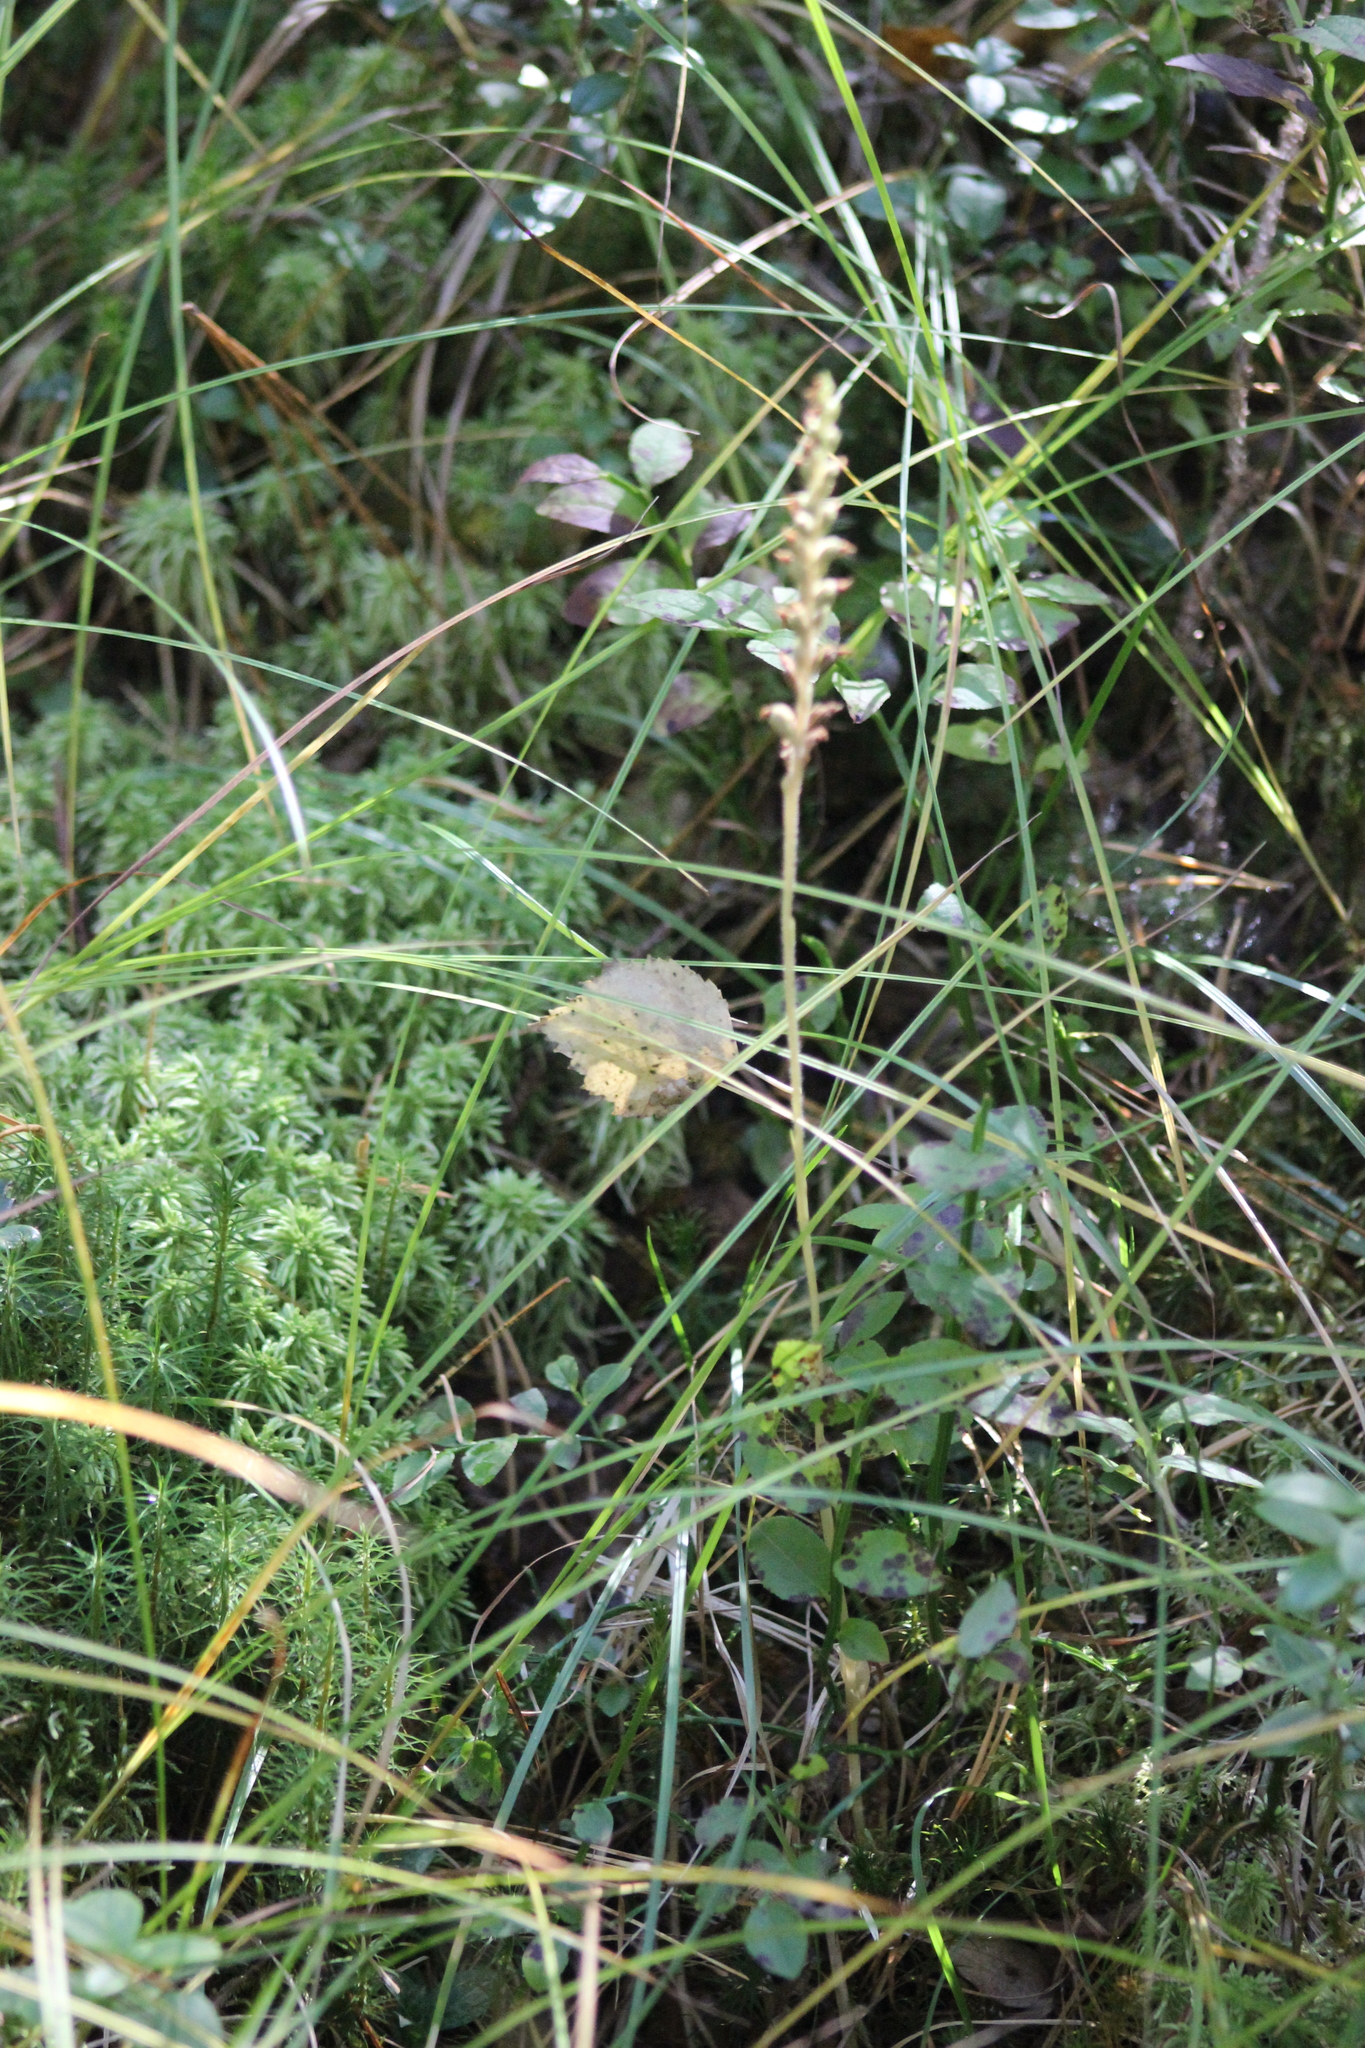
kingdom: Plantae
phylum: Tracheophyta
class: Liliopsida
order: Asparagales
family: Orchidaceae
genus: Goodyera
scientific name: Goodyera repens
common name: Creeping lady's-tresses
